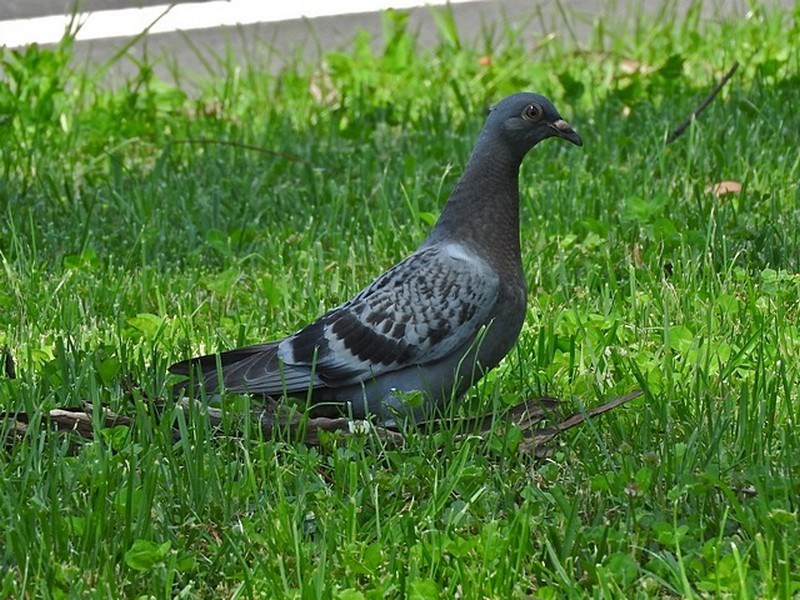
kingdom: Animalia
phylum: Chordata
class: Aves
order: Columbiformes
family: Columbidae
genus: Columba
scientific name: Columba livia
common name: Rock pigeon
